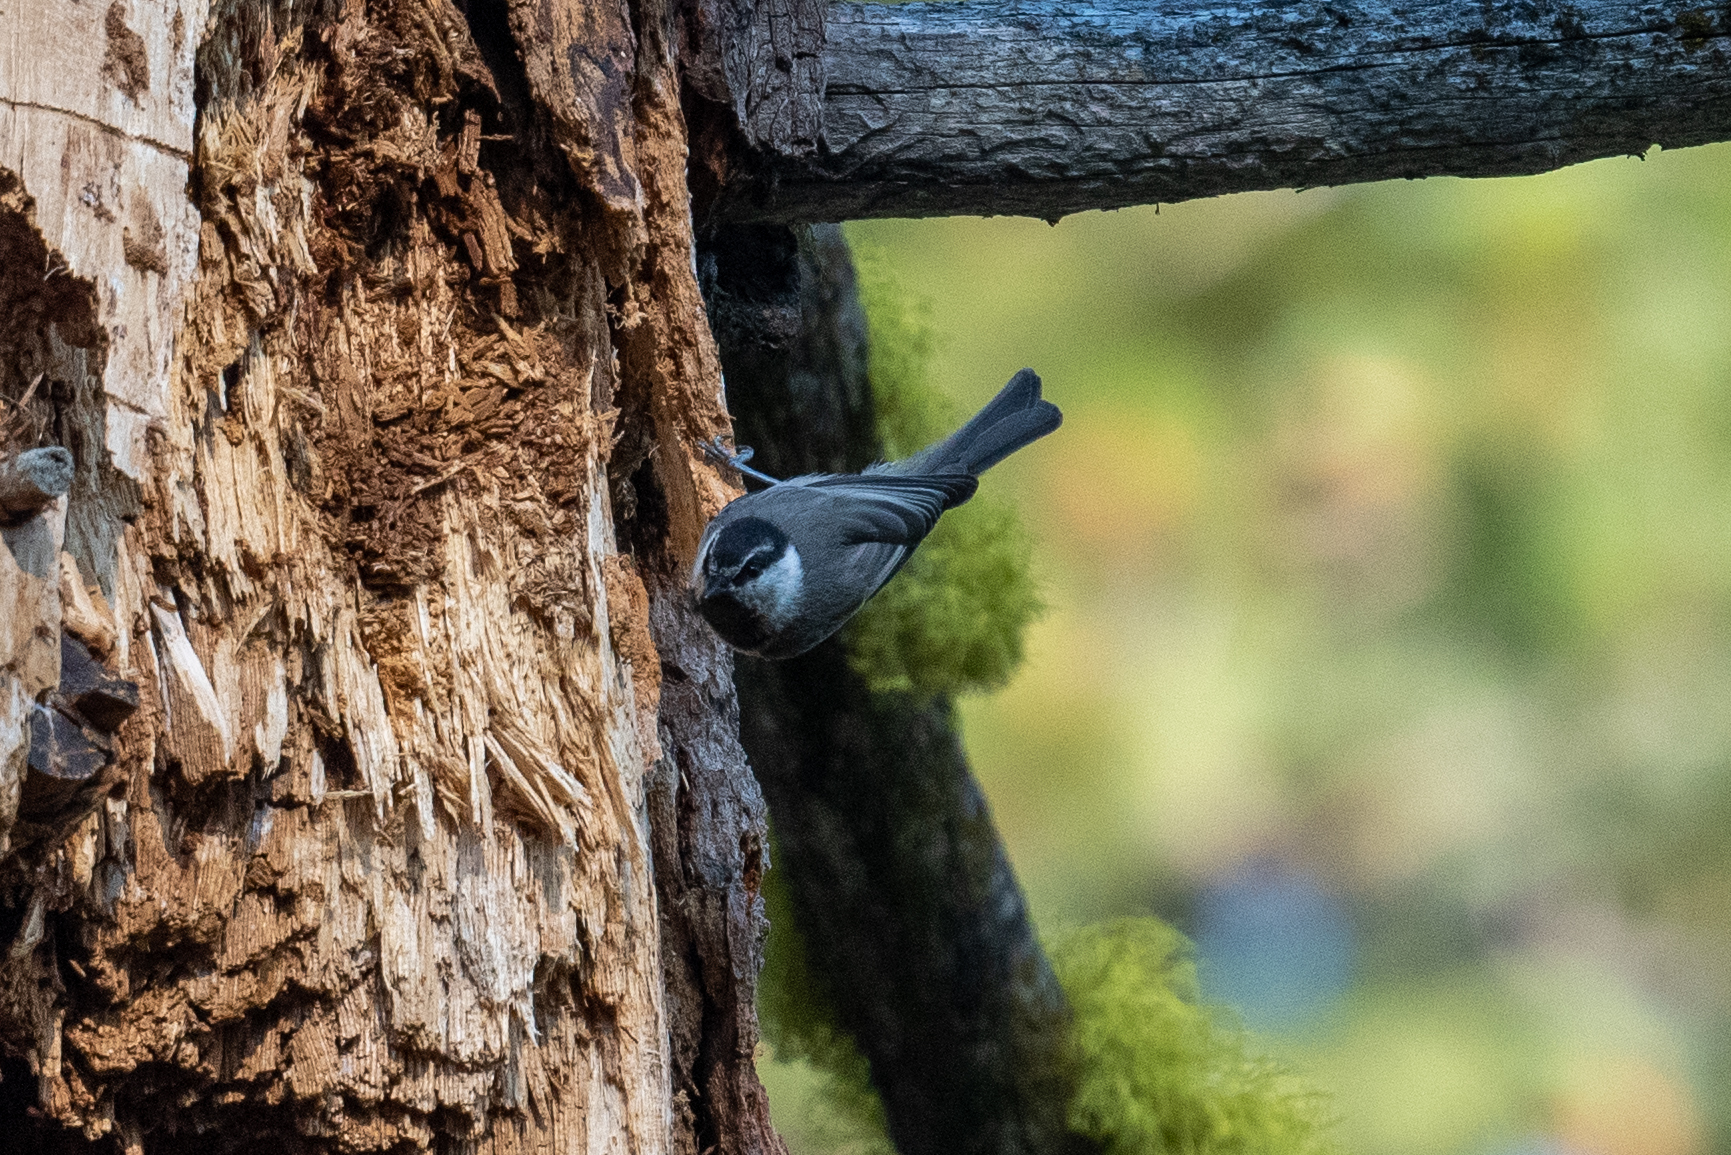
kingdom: Animalia
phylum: Chordata
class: Aves
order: Passeriformes
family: Paridae
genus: Poecile
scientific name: Poecile gambeli
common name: Mountain chickadee
